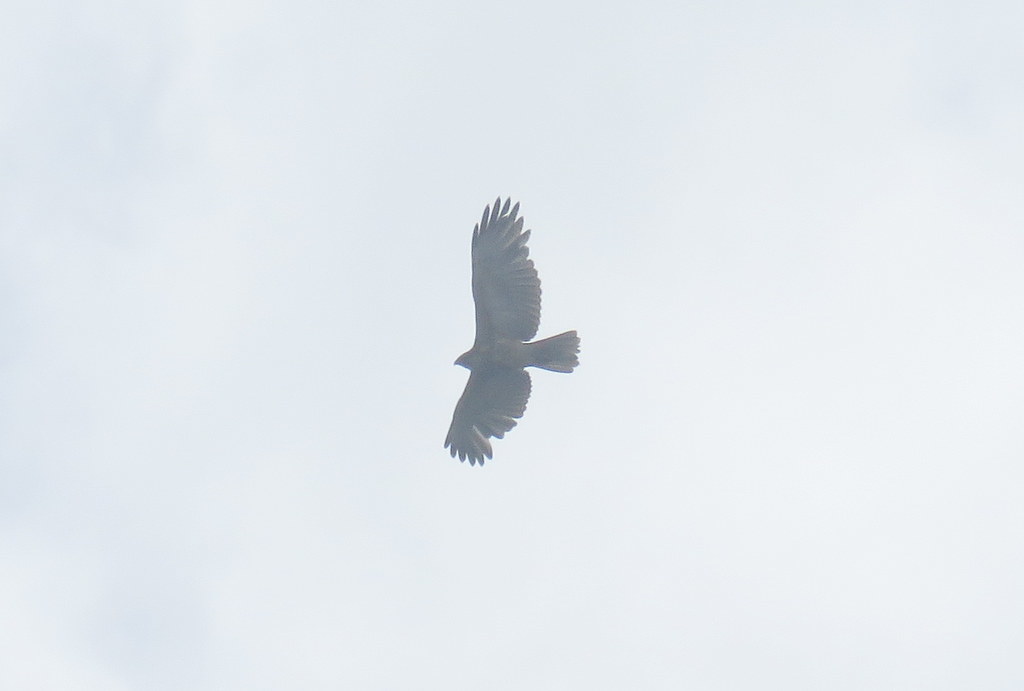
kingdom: Animalia
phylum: Chordata
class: Aves
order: Accipitriformes
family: Accipitridae
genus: Buteo
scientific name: Buteo polyosoma
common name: Variable hawk
